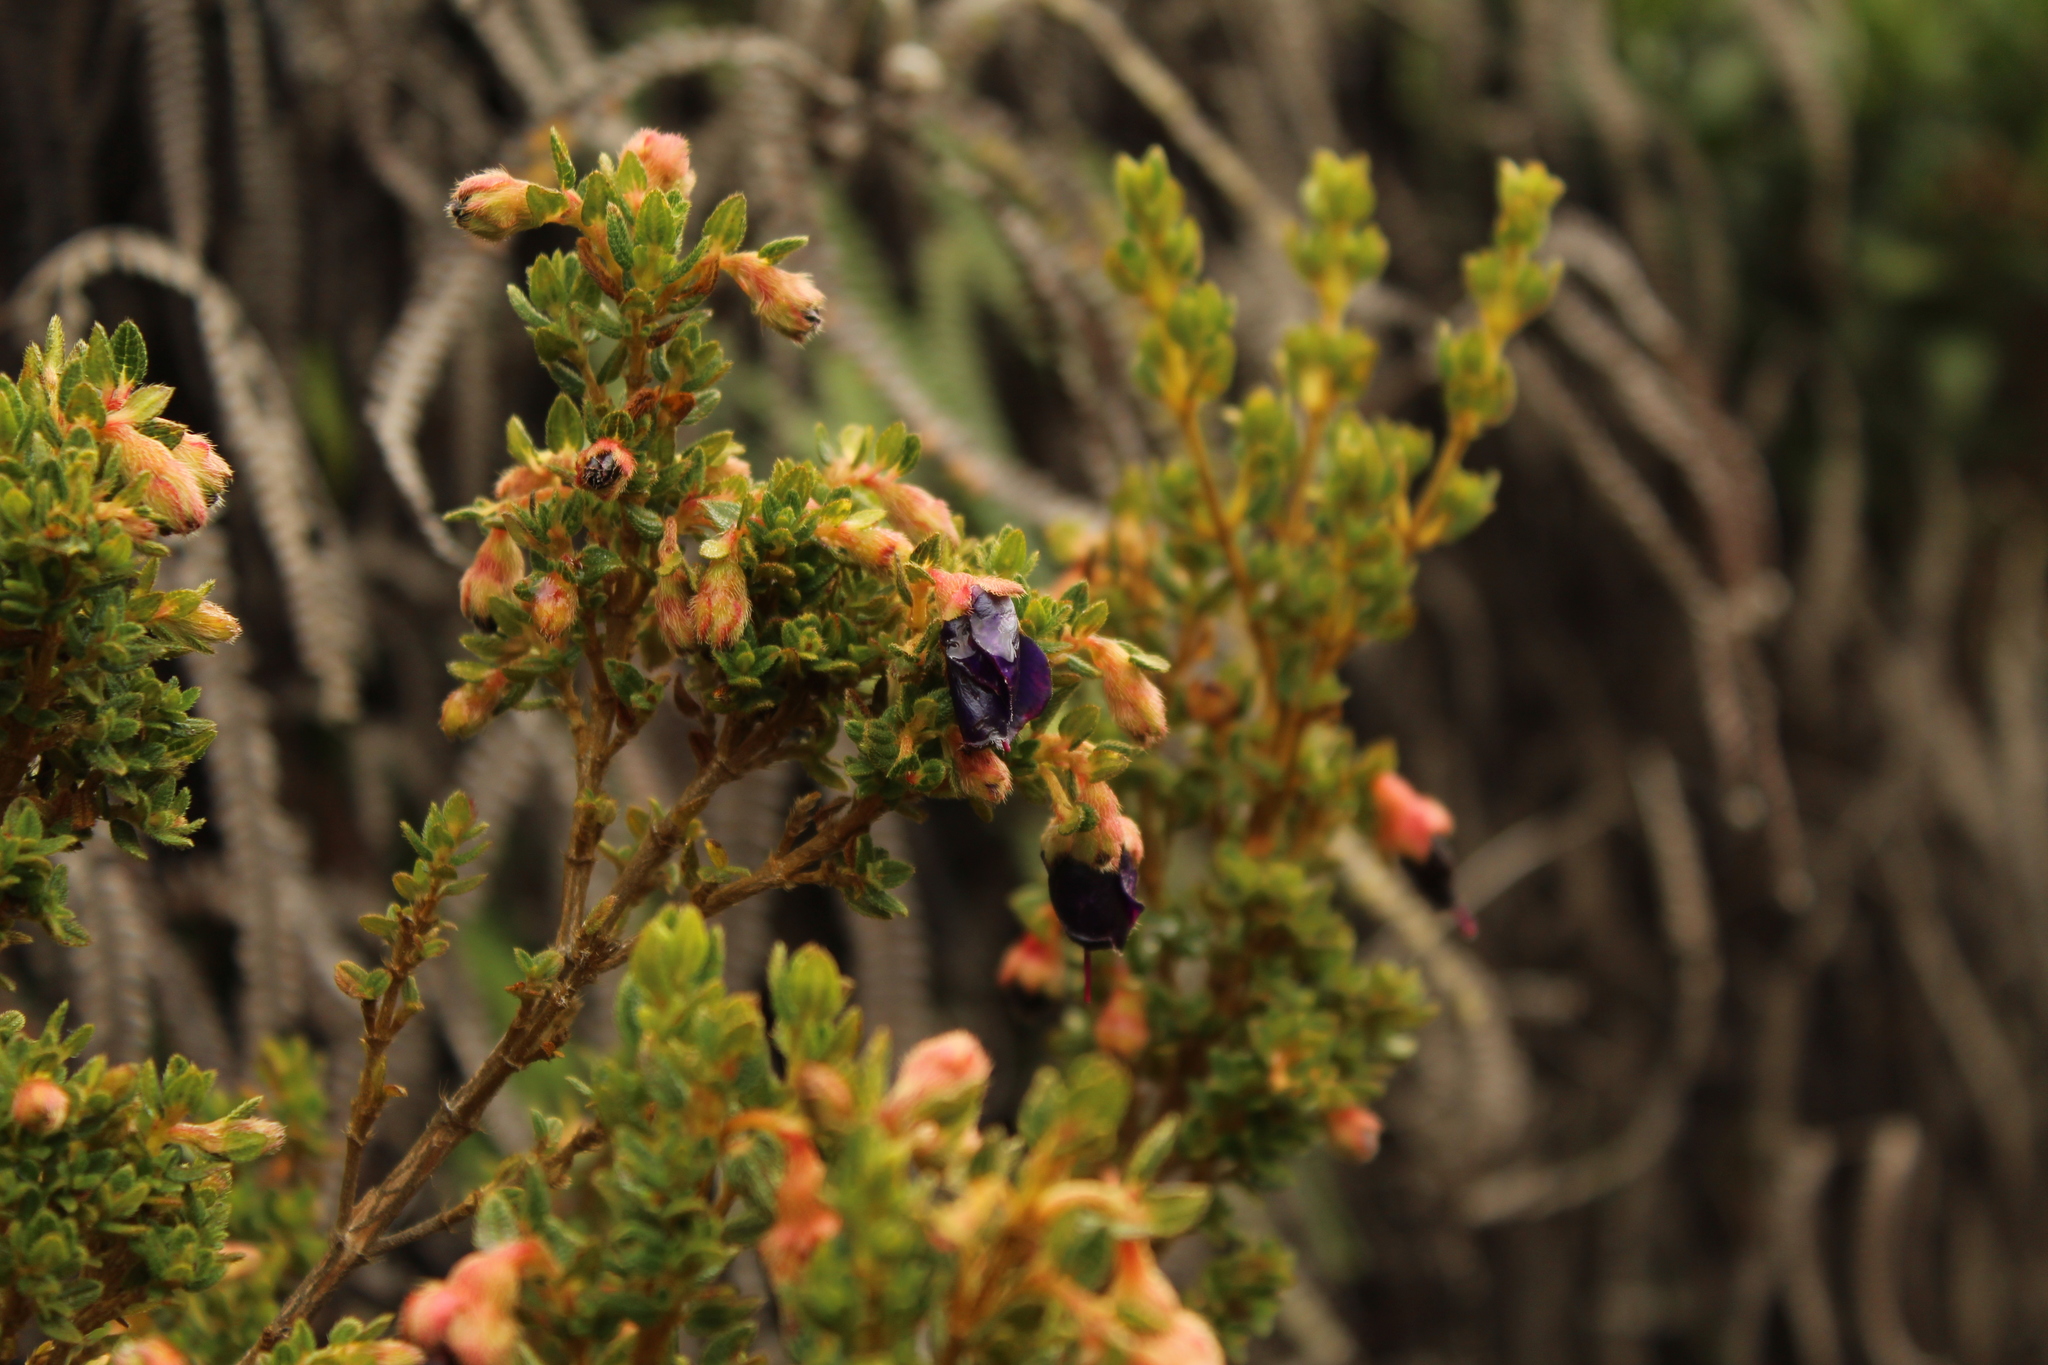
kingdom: Plantae
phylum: Tracheophyta
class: Magnoliopsida
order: Myrtales
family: Melastomataceae
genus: Brachyotum
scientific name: Brachyotum strigosum
